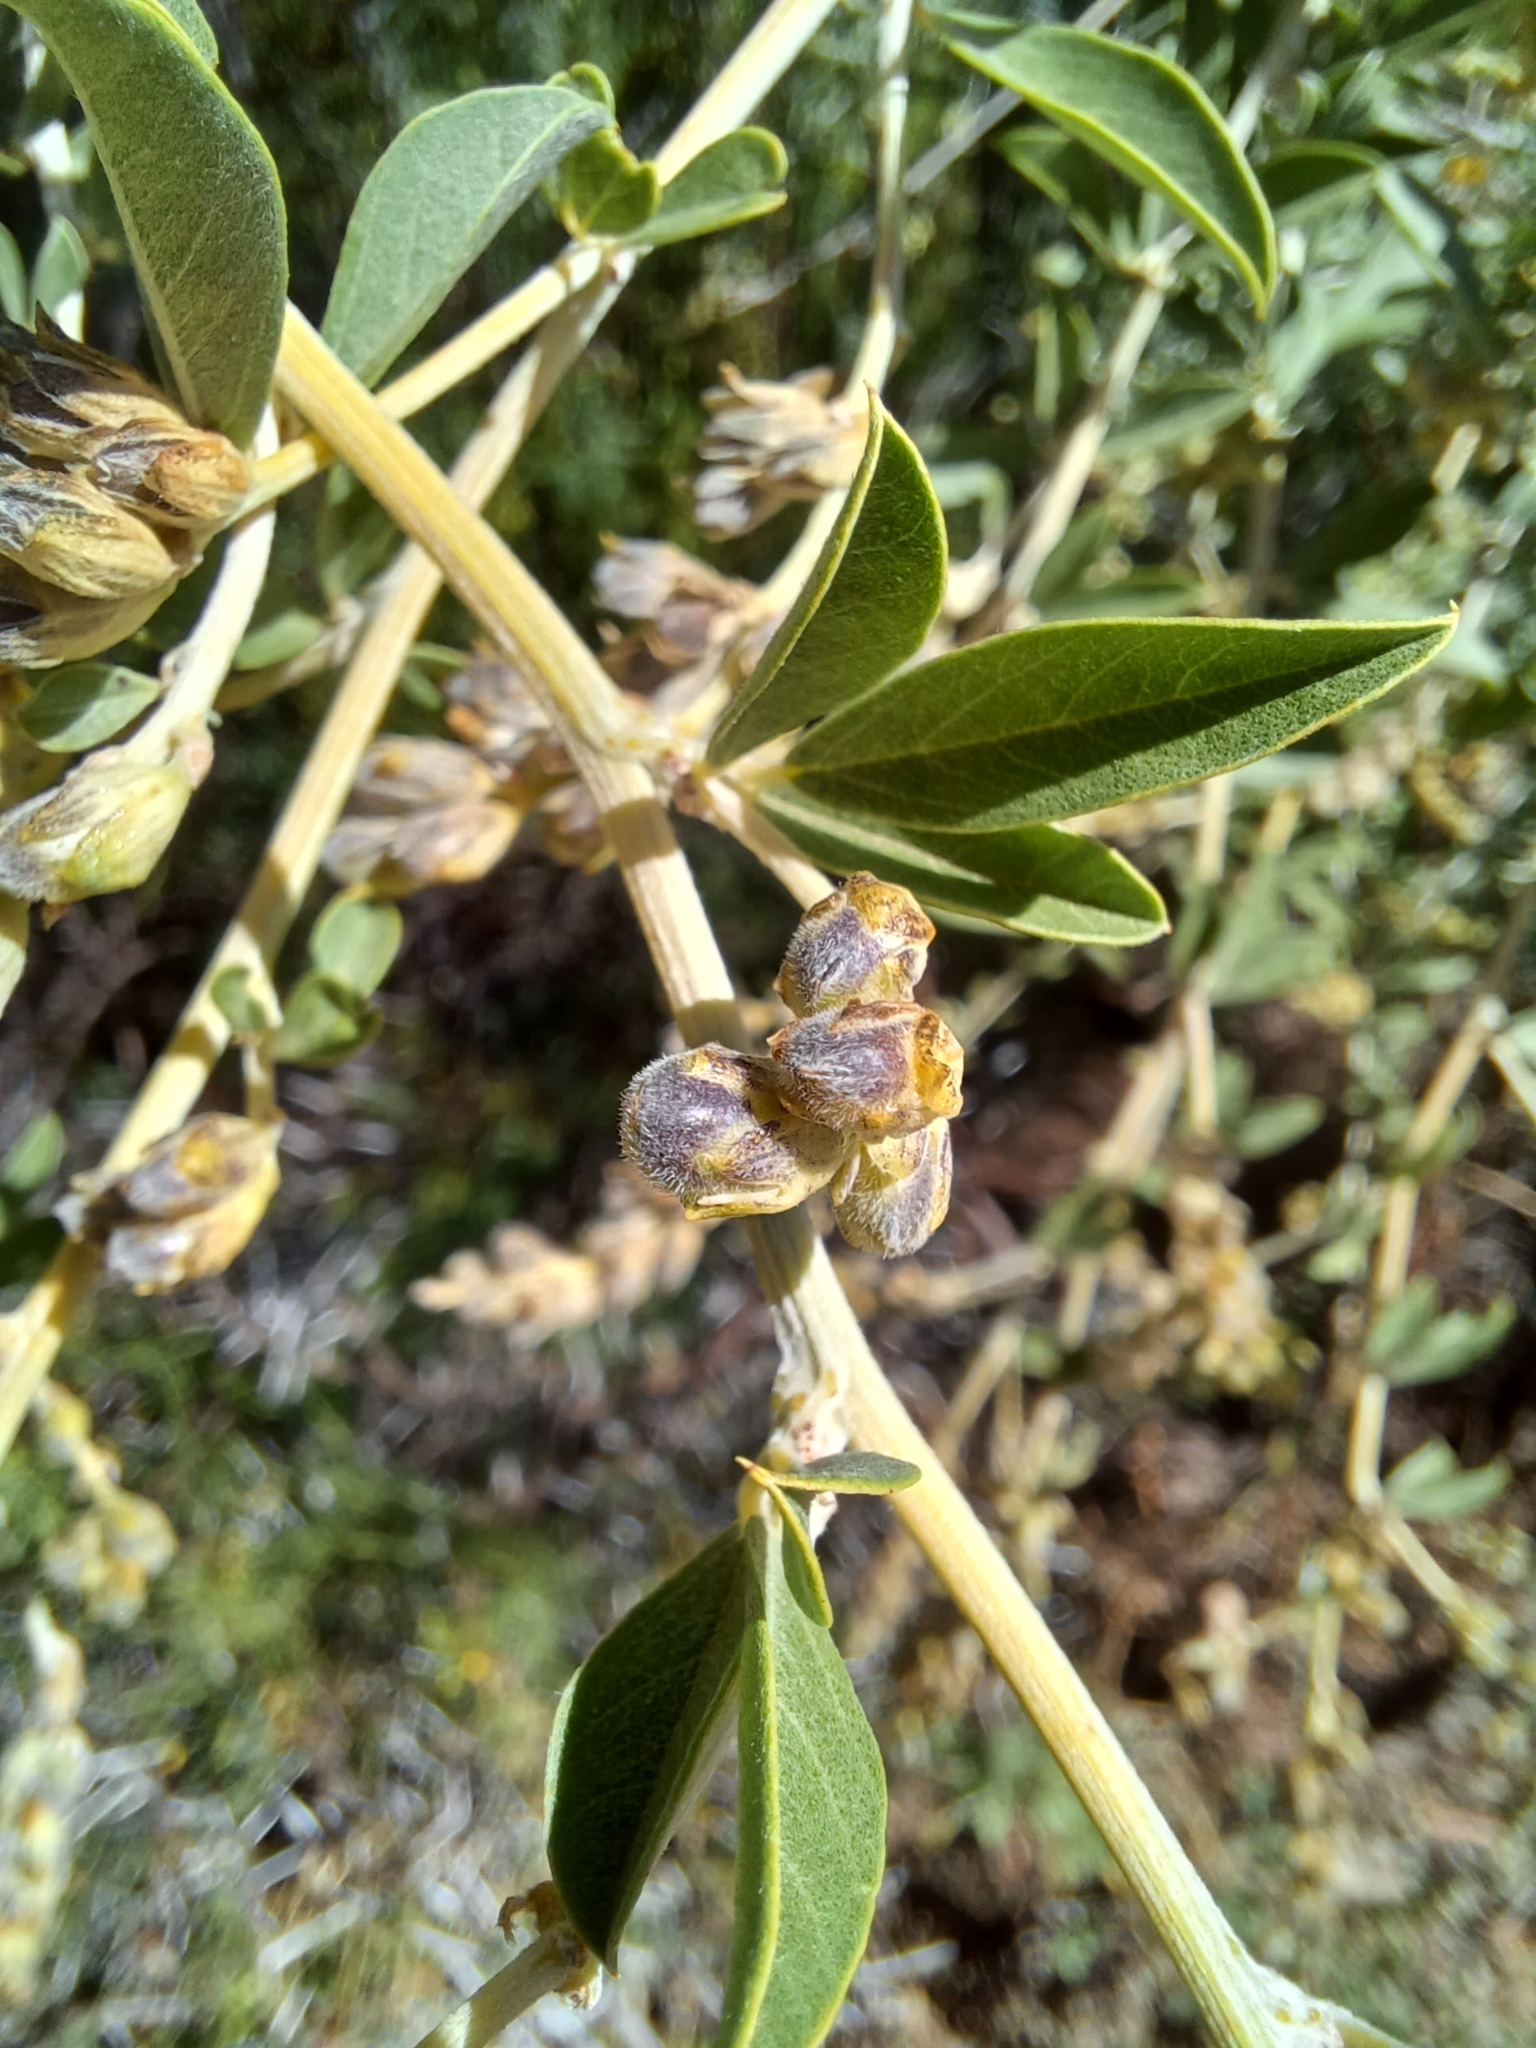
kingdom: Plantae
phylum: Tracheophyta
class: Magnoliopsida
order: Fabales
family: Fabaceae
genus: Psoralea
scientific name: Psoralea striata
